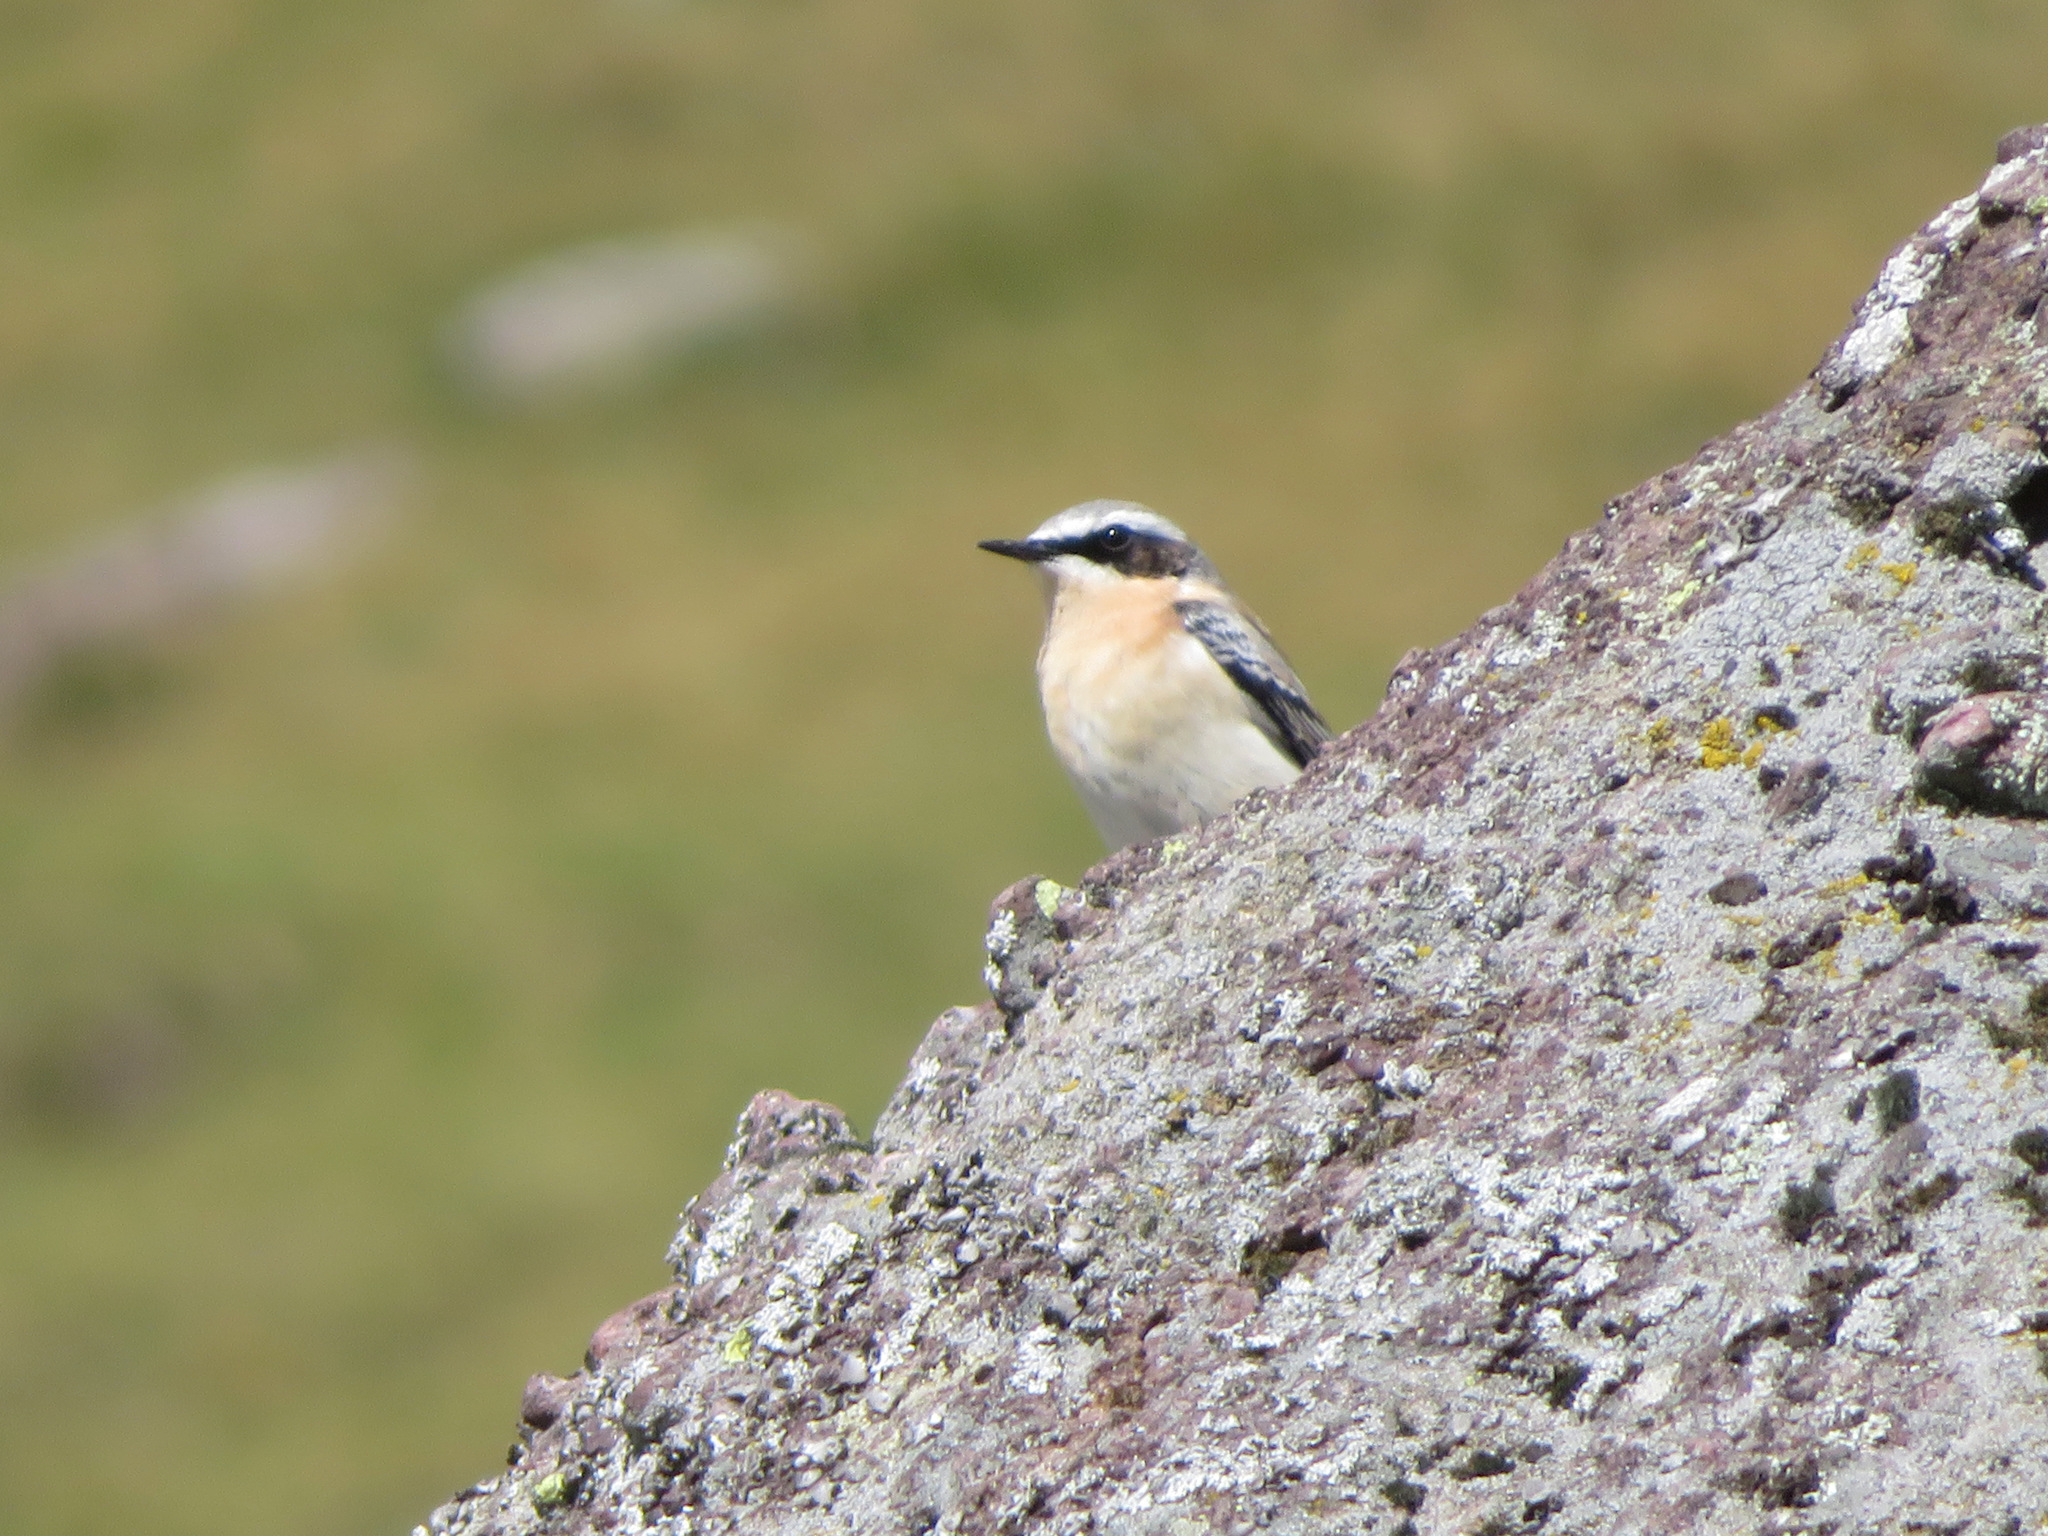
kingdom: Animalia
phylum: Chordata
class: Aves
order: Passeriformes
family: Muscicapidae
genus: Oenanthe
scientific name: Oenanthe oenanthe
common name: Northern wheatear
